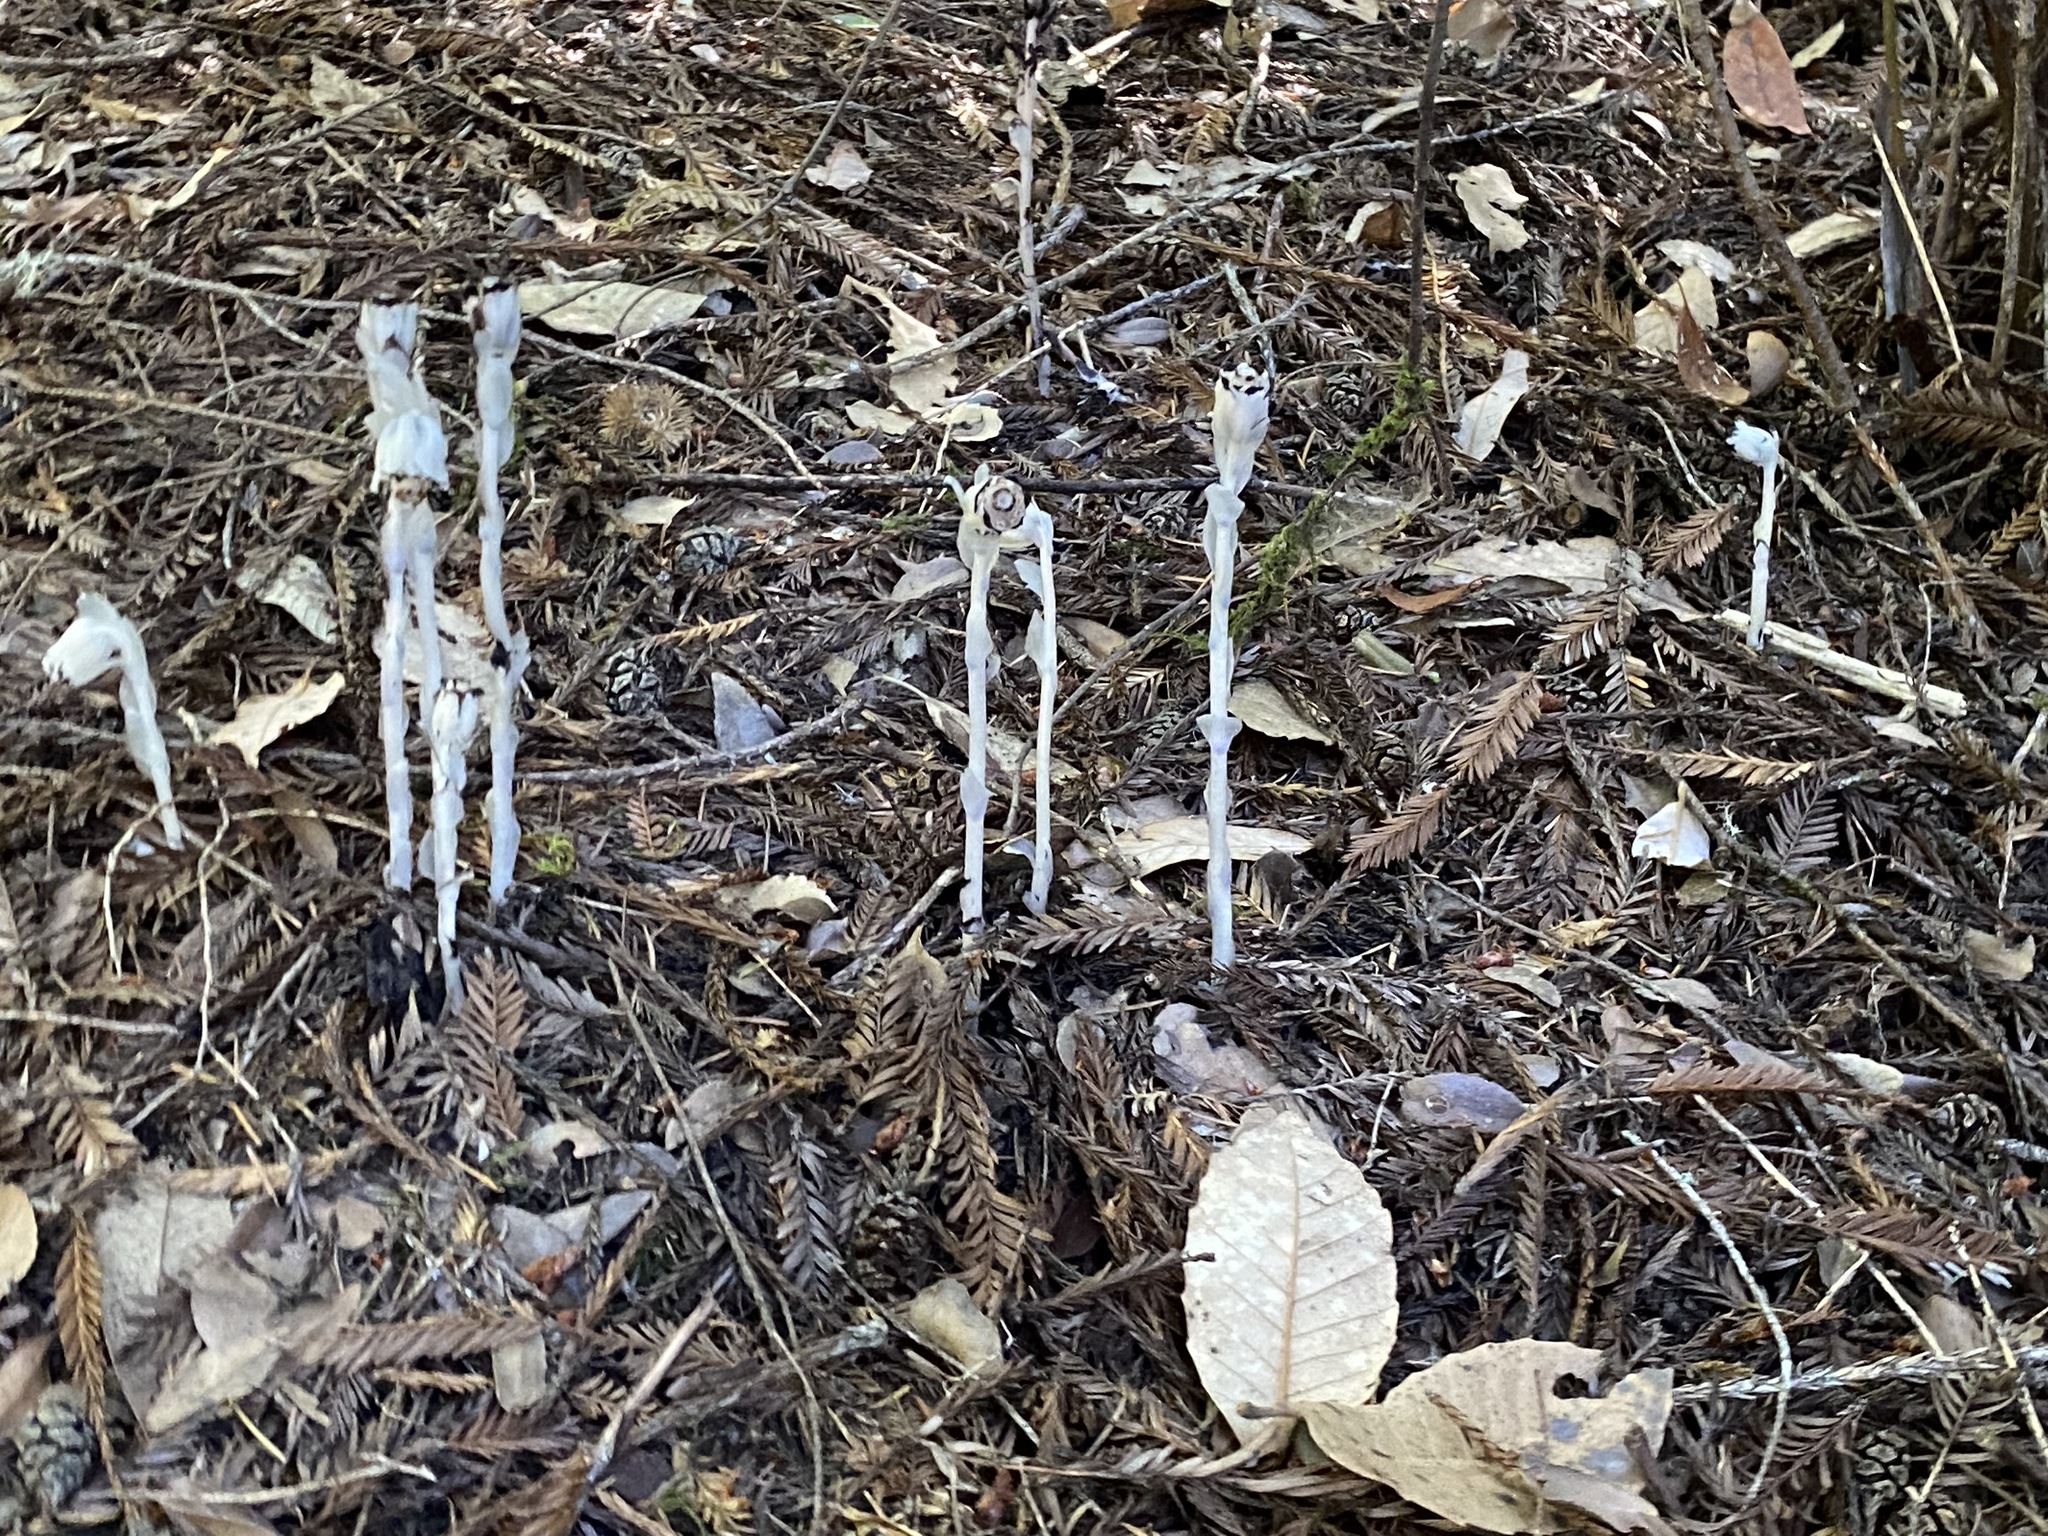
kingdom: Plantae
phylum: Tracheophyta
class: Magnoliopsida
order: Ericales
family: Ericaceae
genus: Monotropa
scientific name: Monotropa uniflora
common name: Convulsion root
